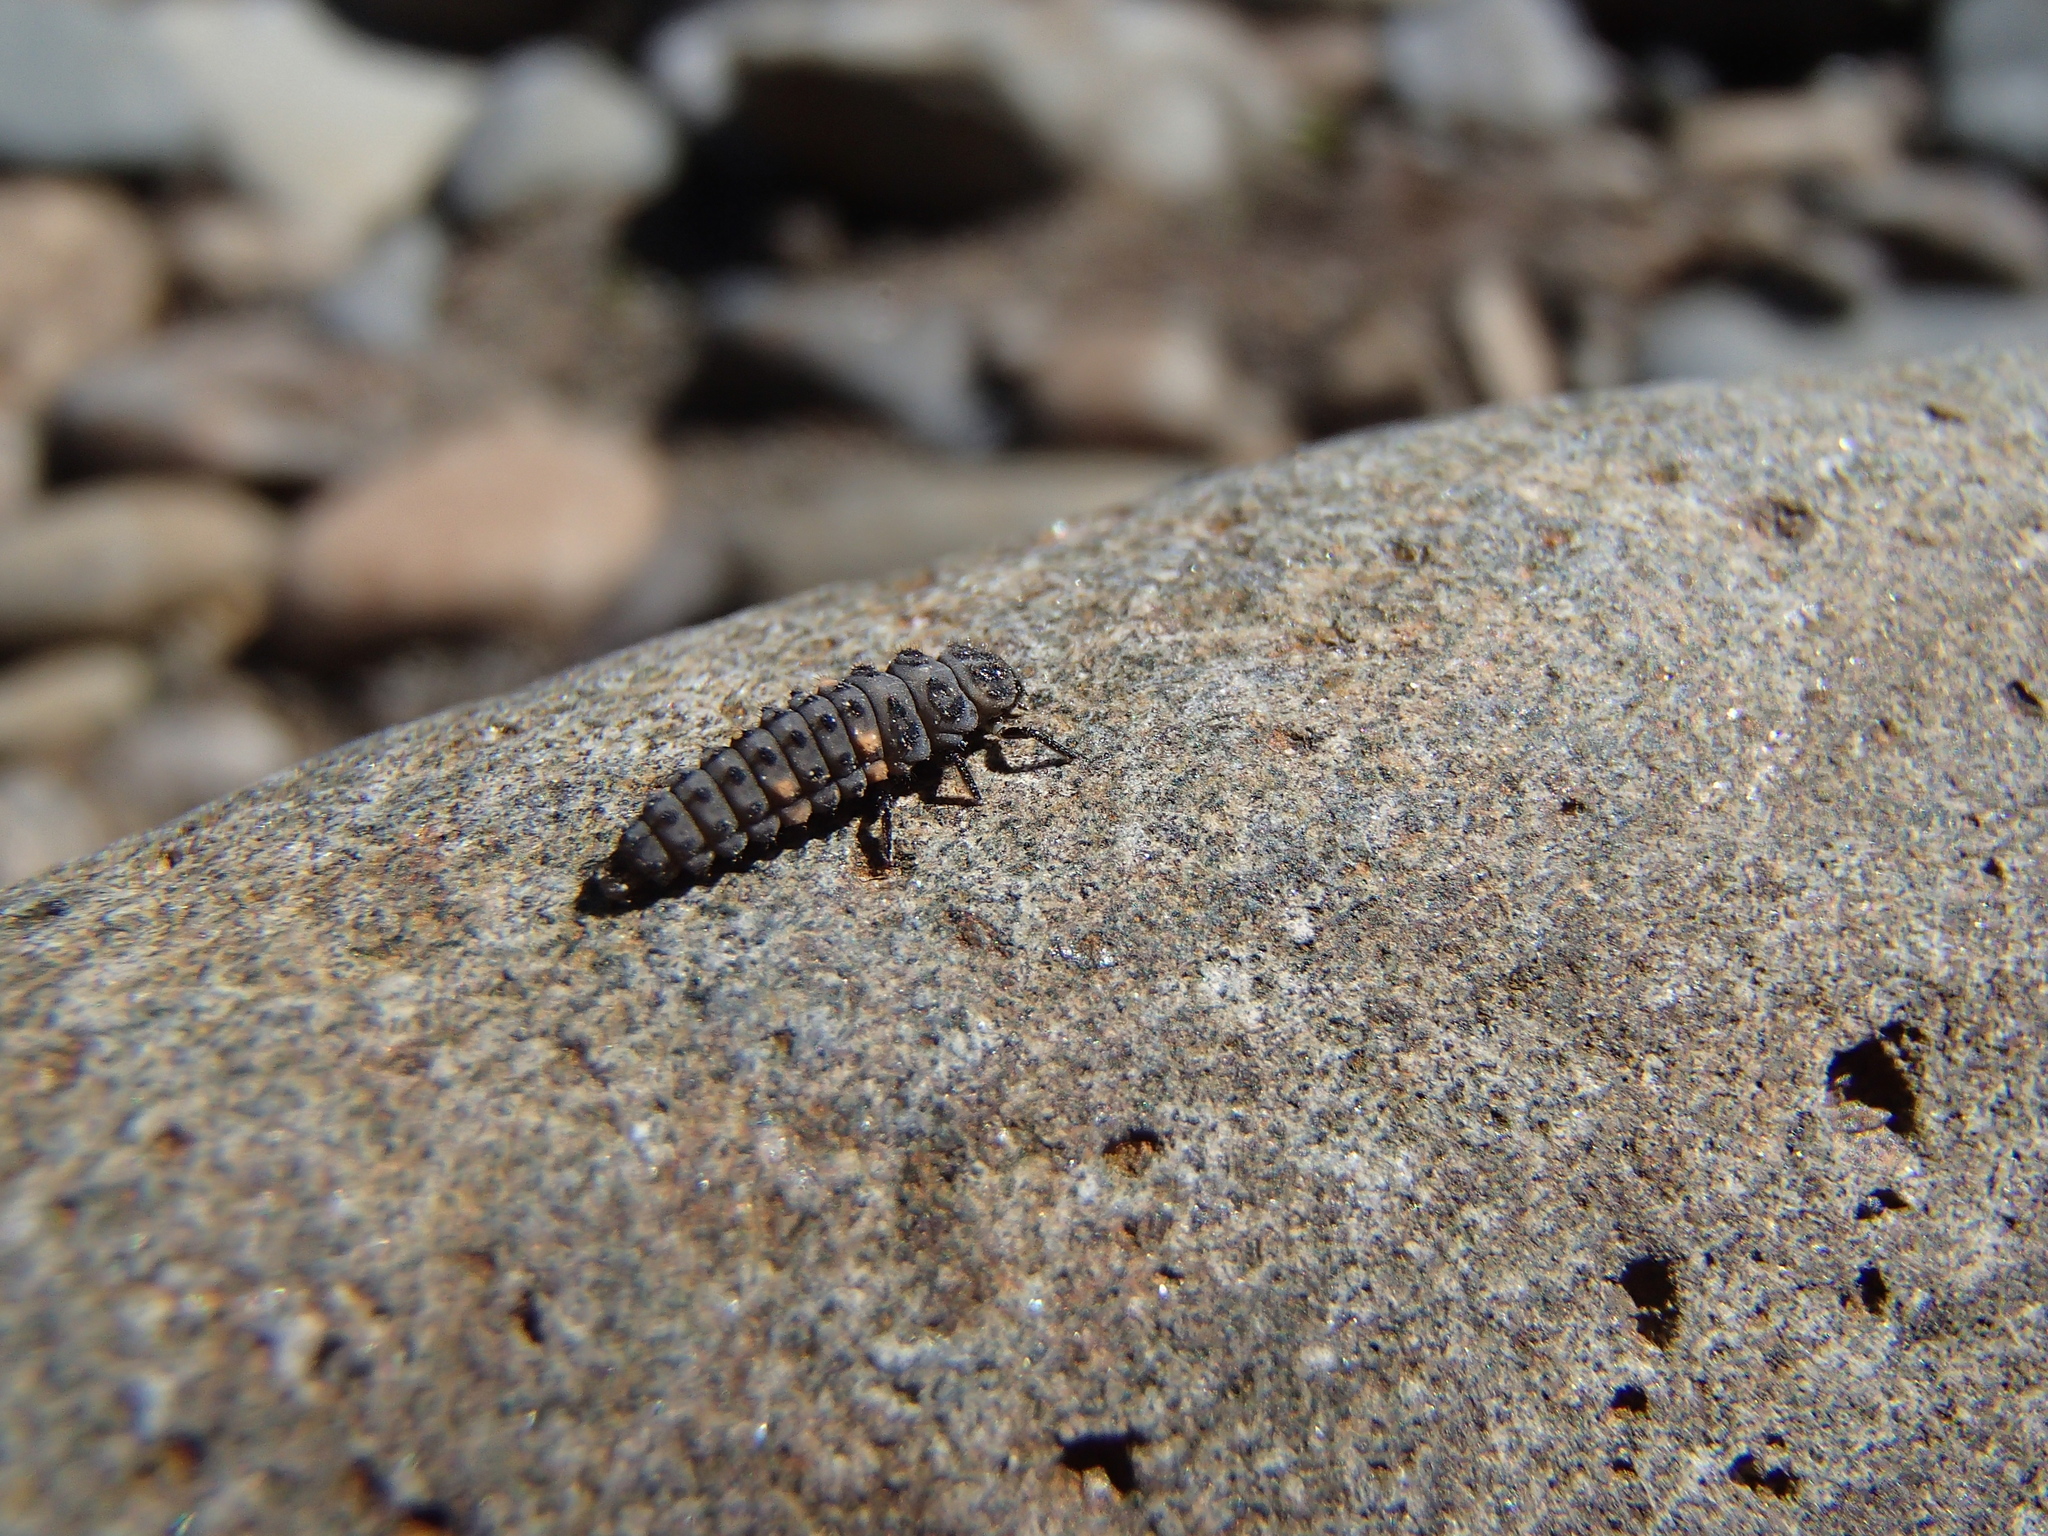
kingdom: Animalia
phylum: Arthropoda
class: Insecta
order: Coleoptera
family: Coccinellidae
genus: Coccinella
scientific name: Coccinella undecimpunctata
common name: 11-spot ladybird
